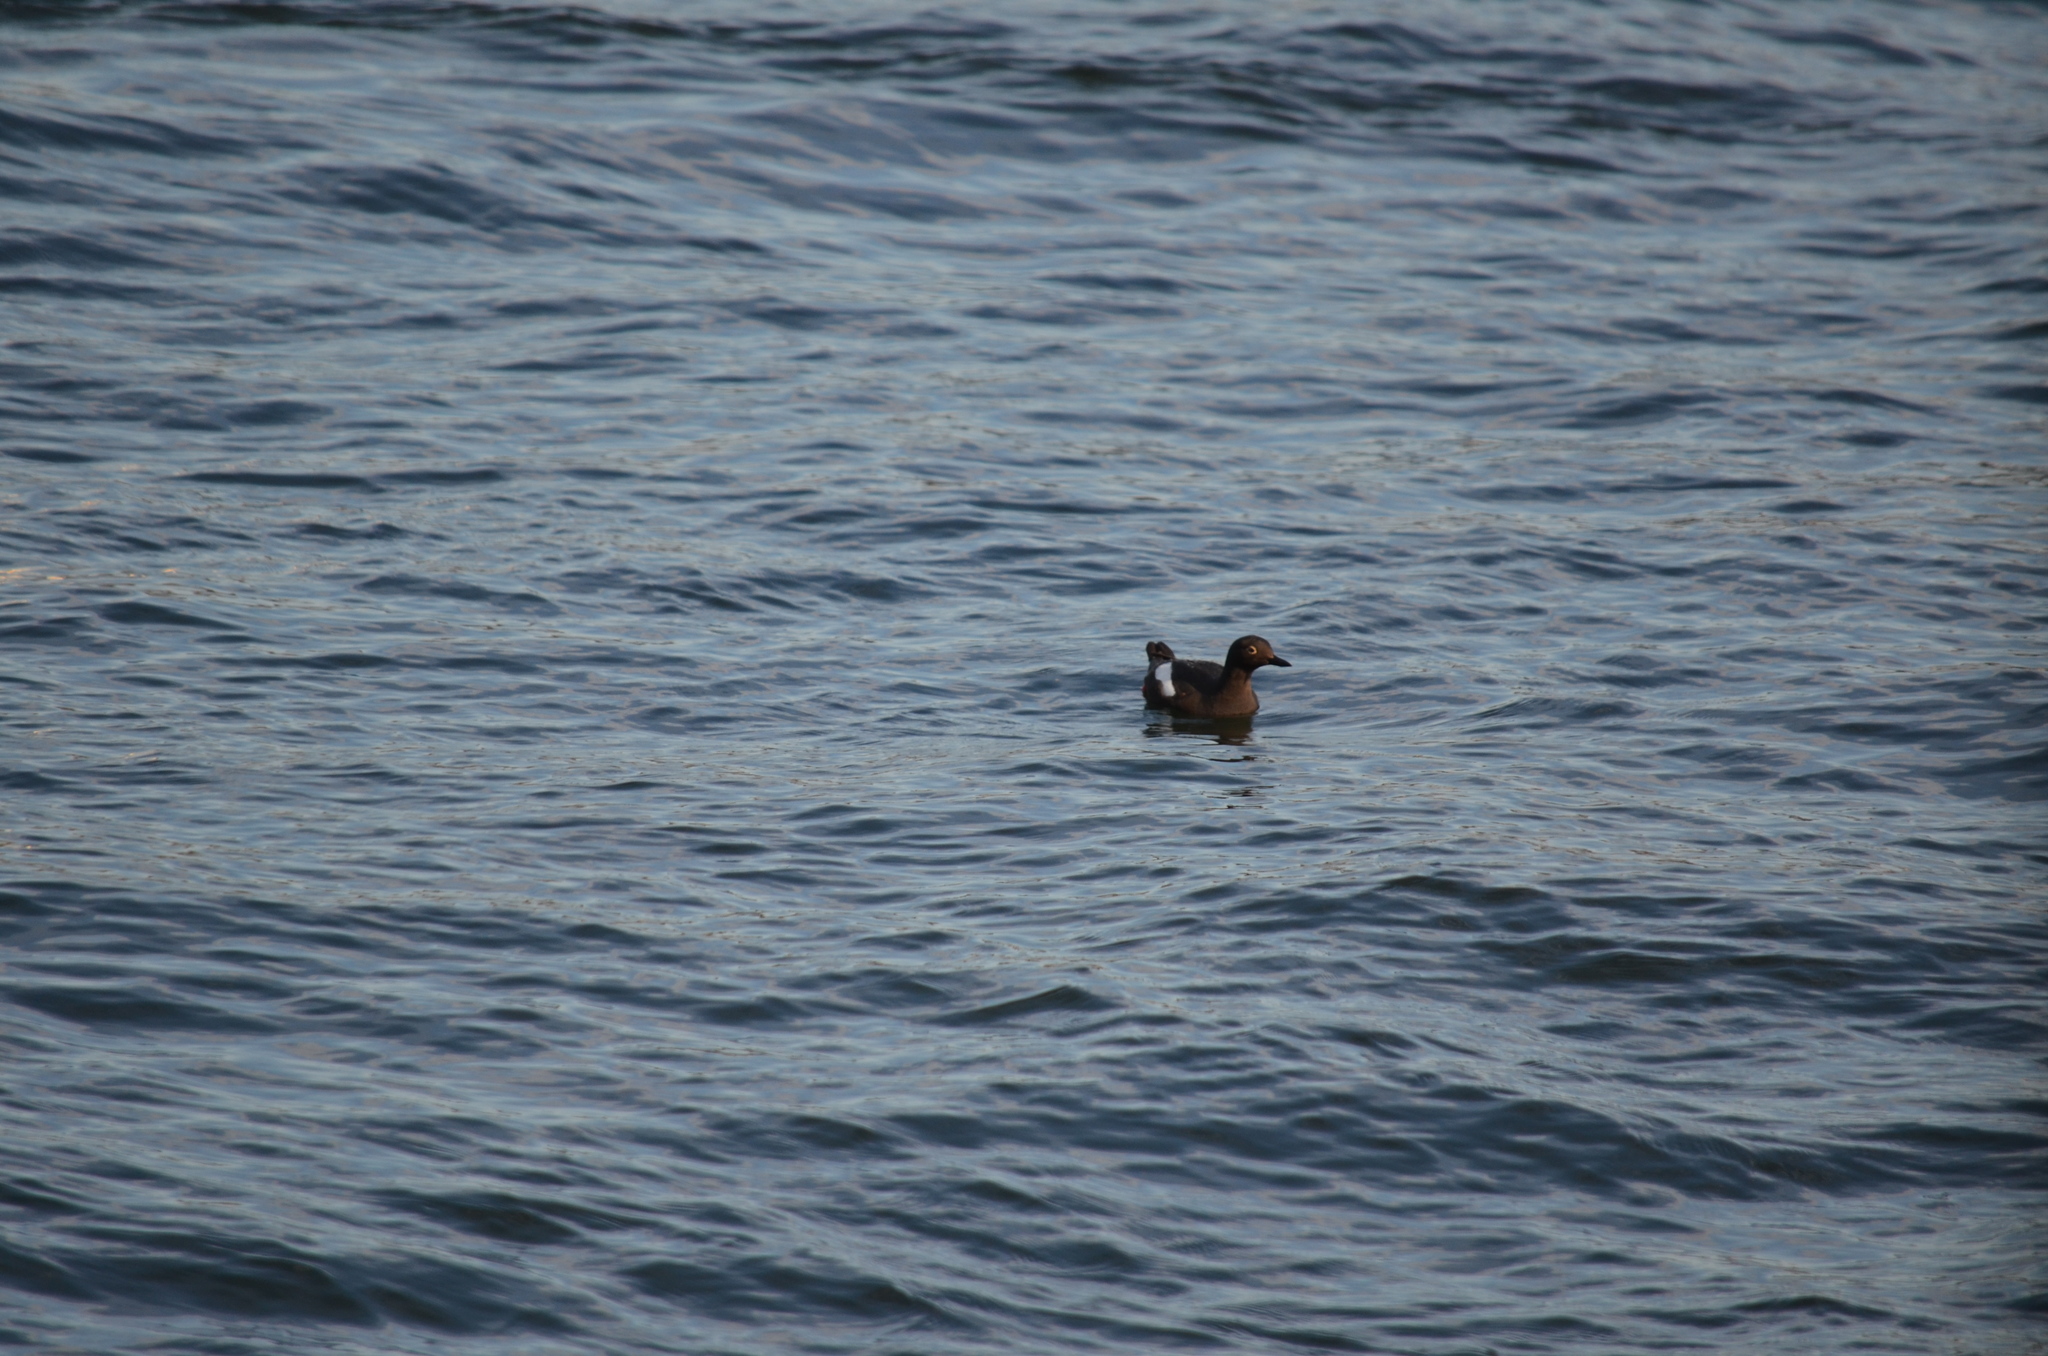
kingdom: Animalia
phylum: Chordata
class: Aves
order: Charadriiformes
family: Alcidae
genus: Cepphus
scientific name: Cepphus columba
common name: Pigeon guillemot
